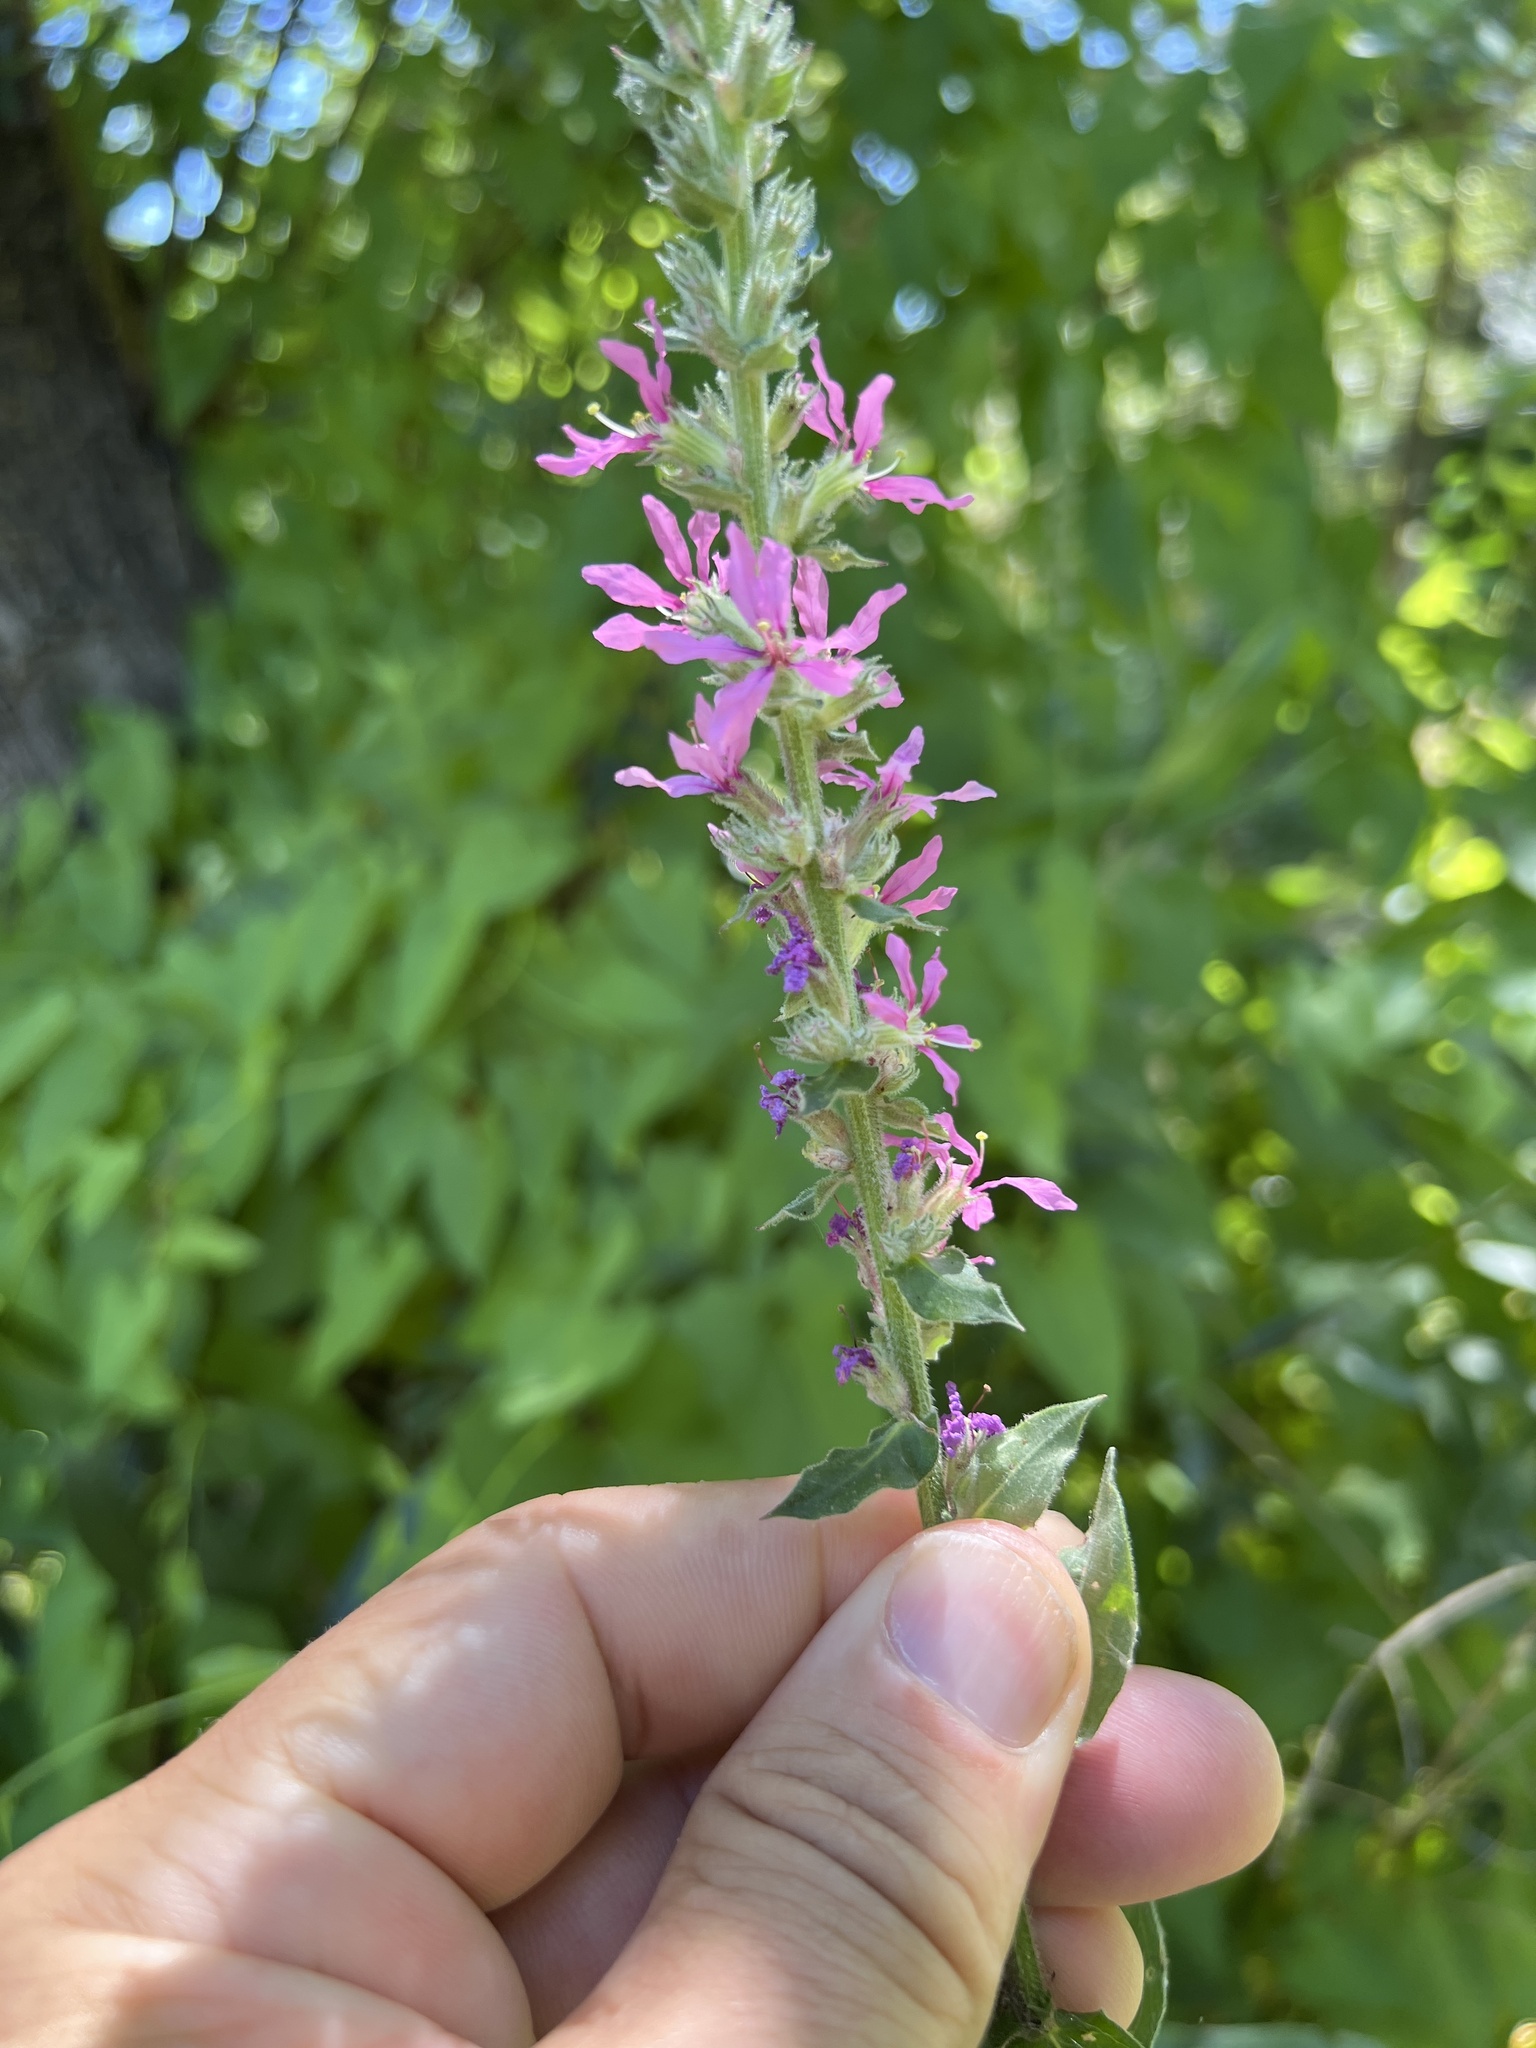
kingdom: Plantae
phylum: Tracheophyta
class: Magnoliopsida
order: Myrtales
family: Lythraceae
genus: Lythrum
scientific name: Lythrum salicaria
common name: Purple loosestrife
